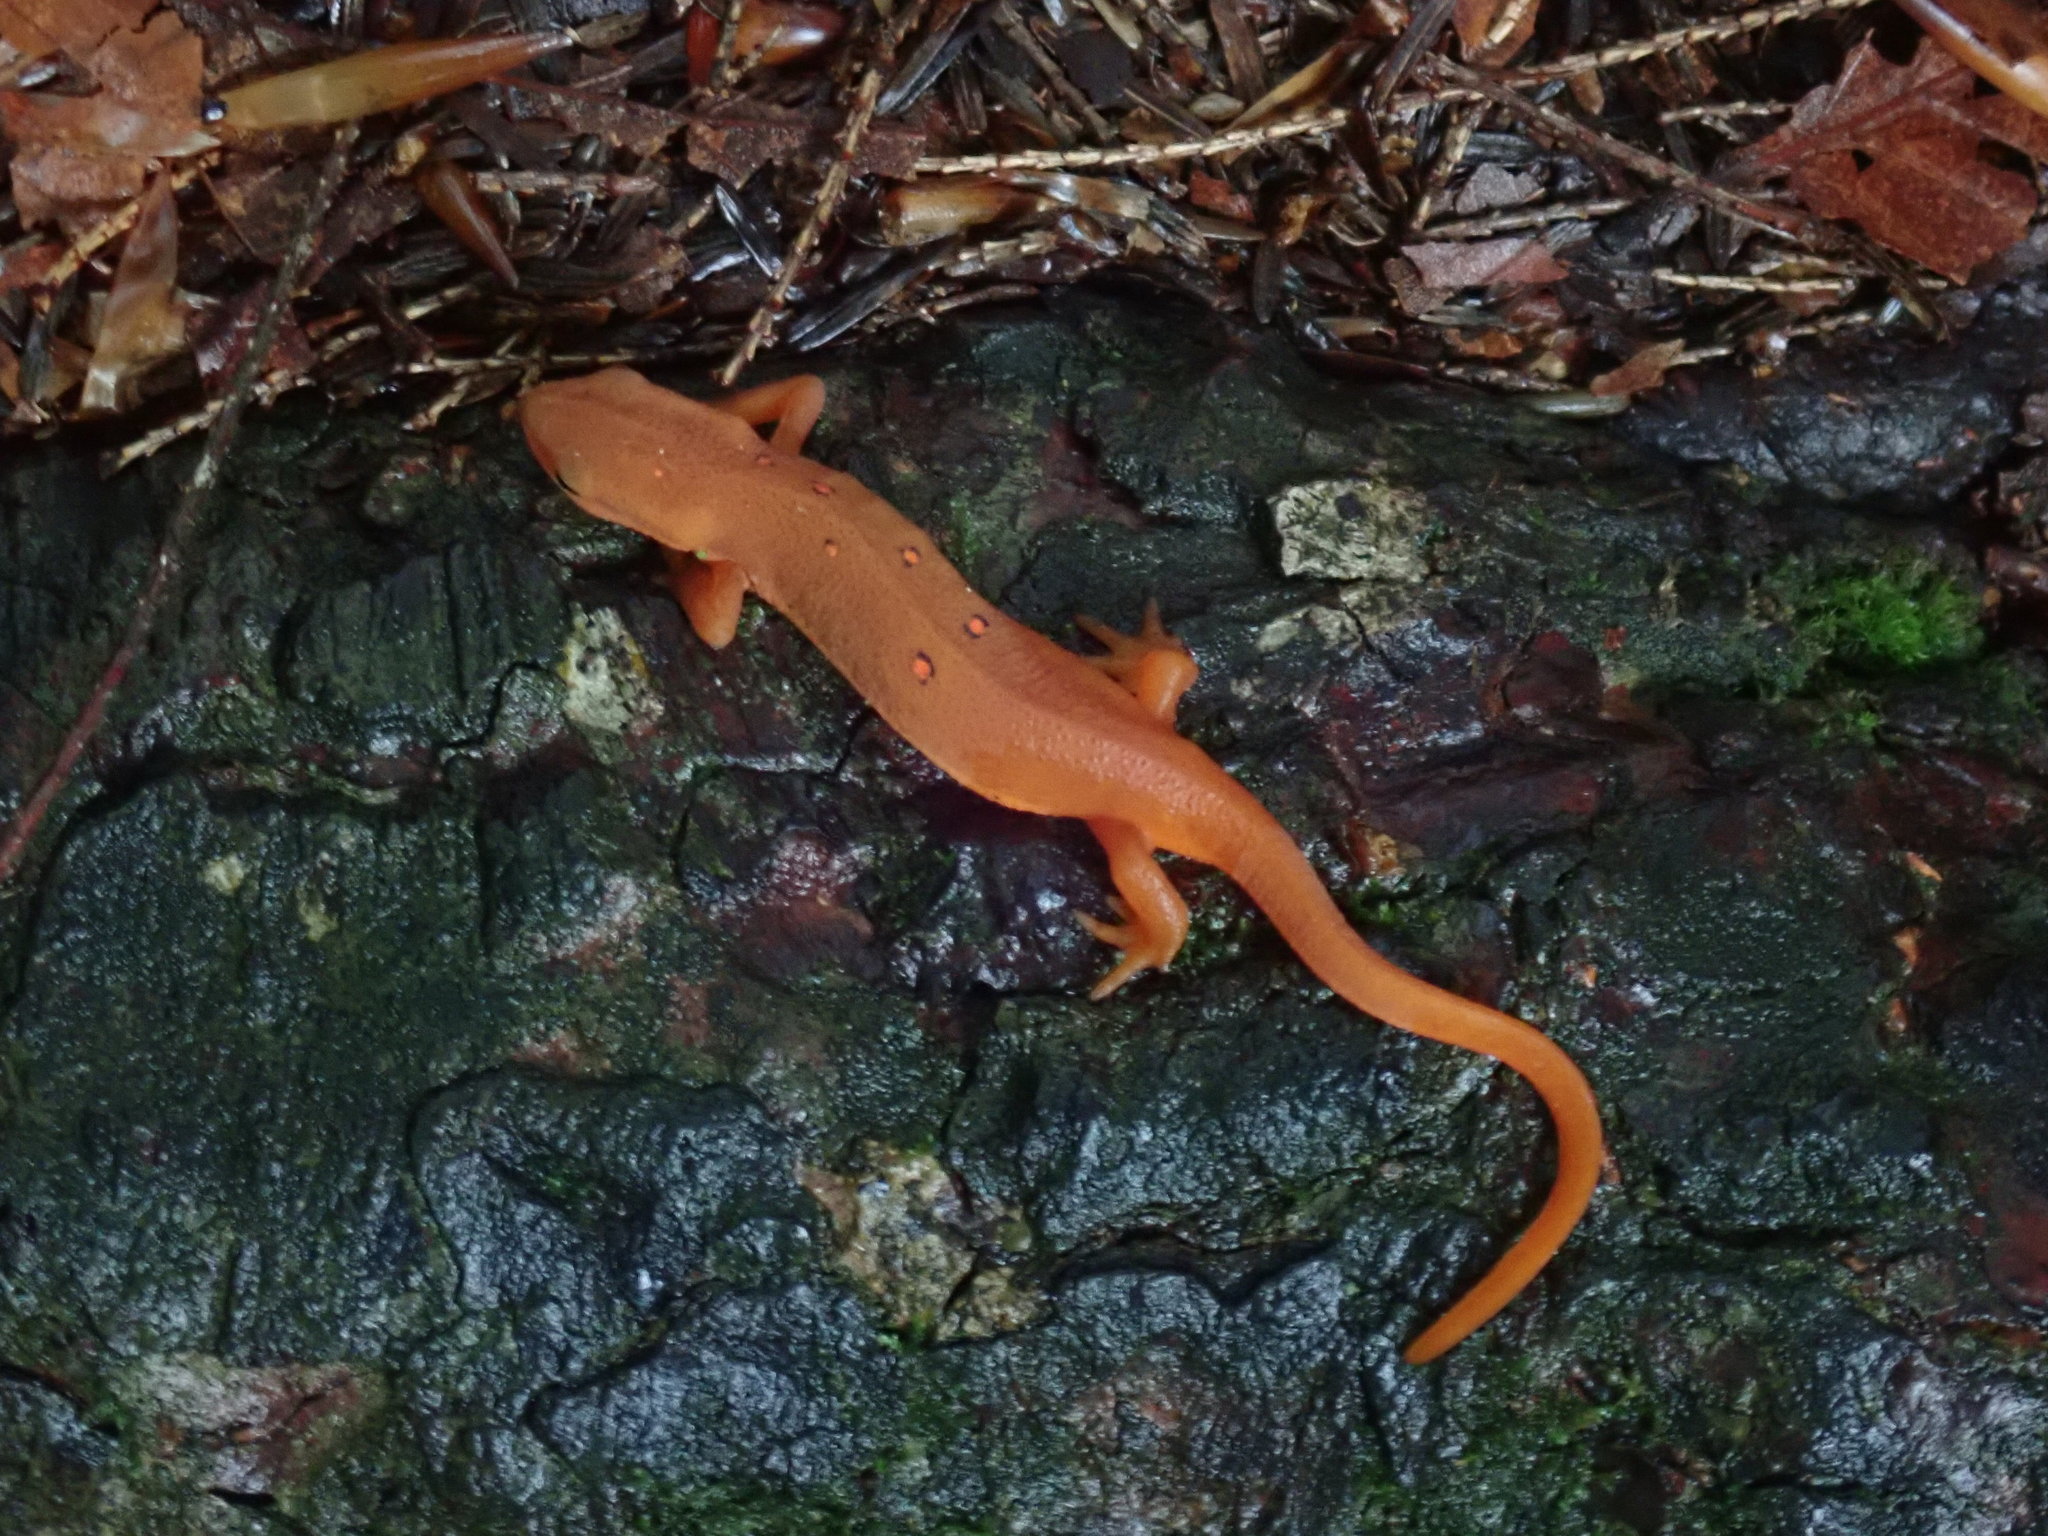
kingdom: Animalia
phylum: Chordata
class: Amphibia
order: Caudata
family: Salamandridae
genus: Notophthalmus
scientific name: Notophthalmus viridescens
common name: Eastern newt
